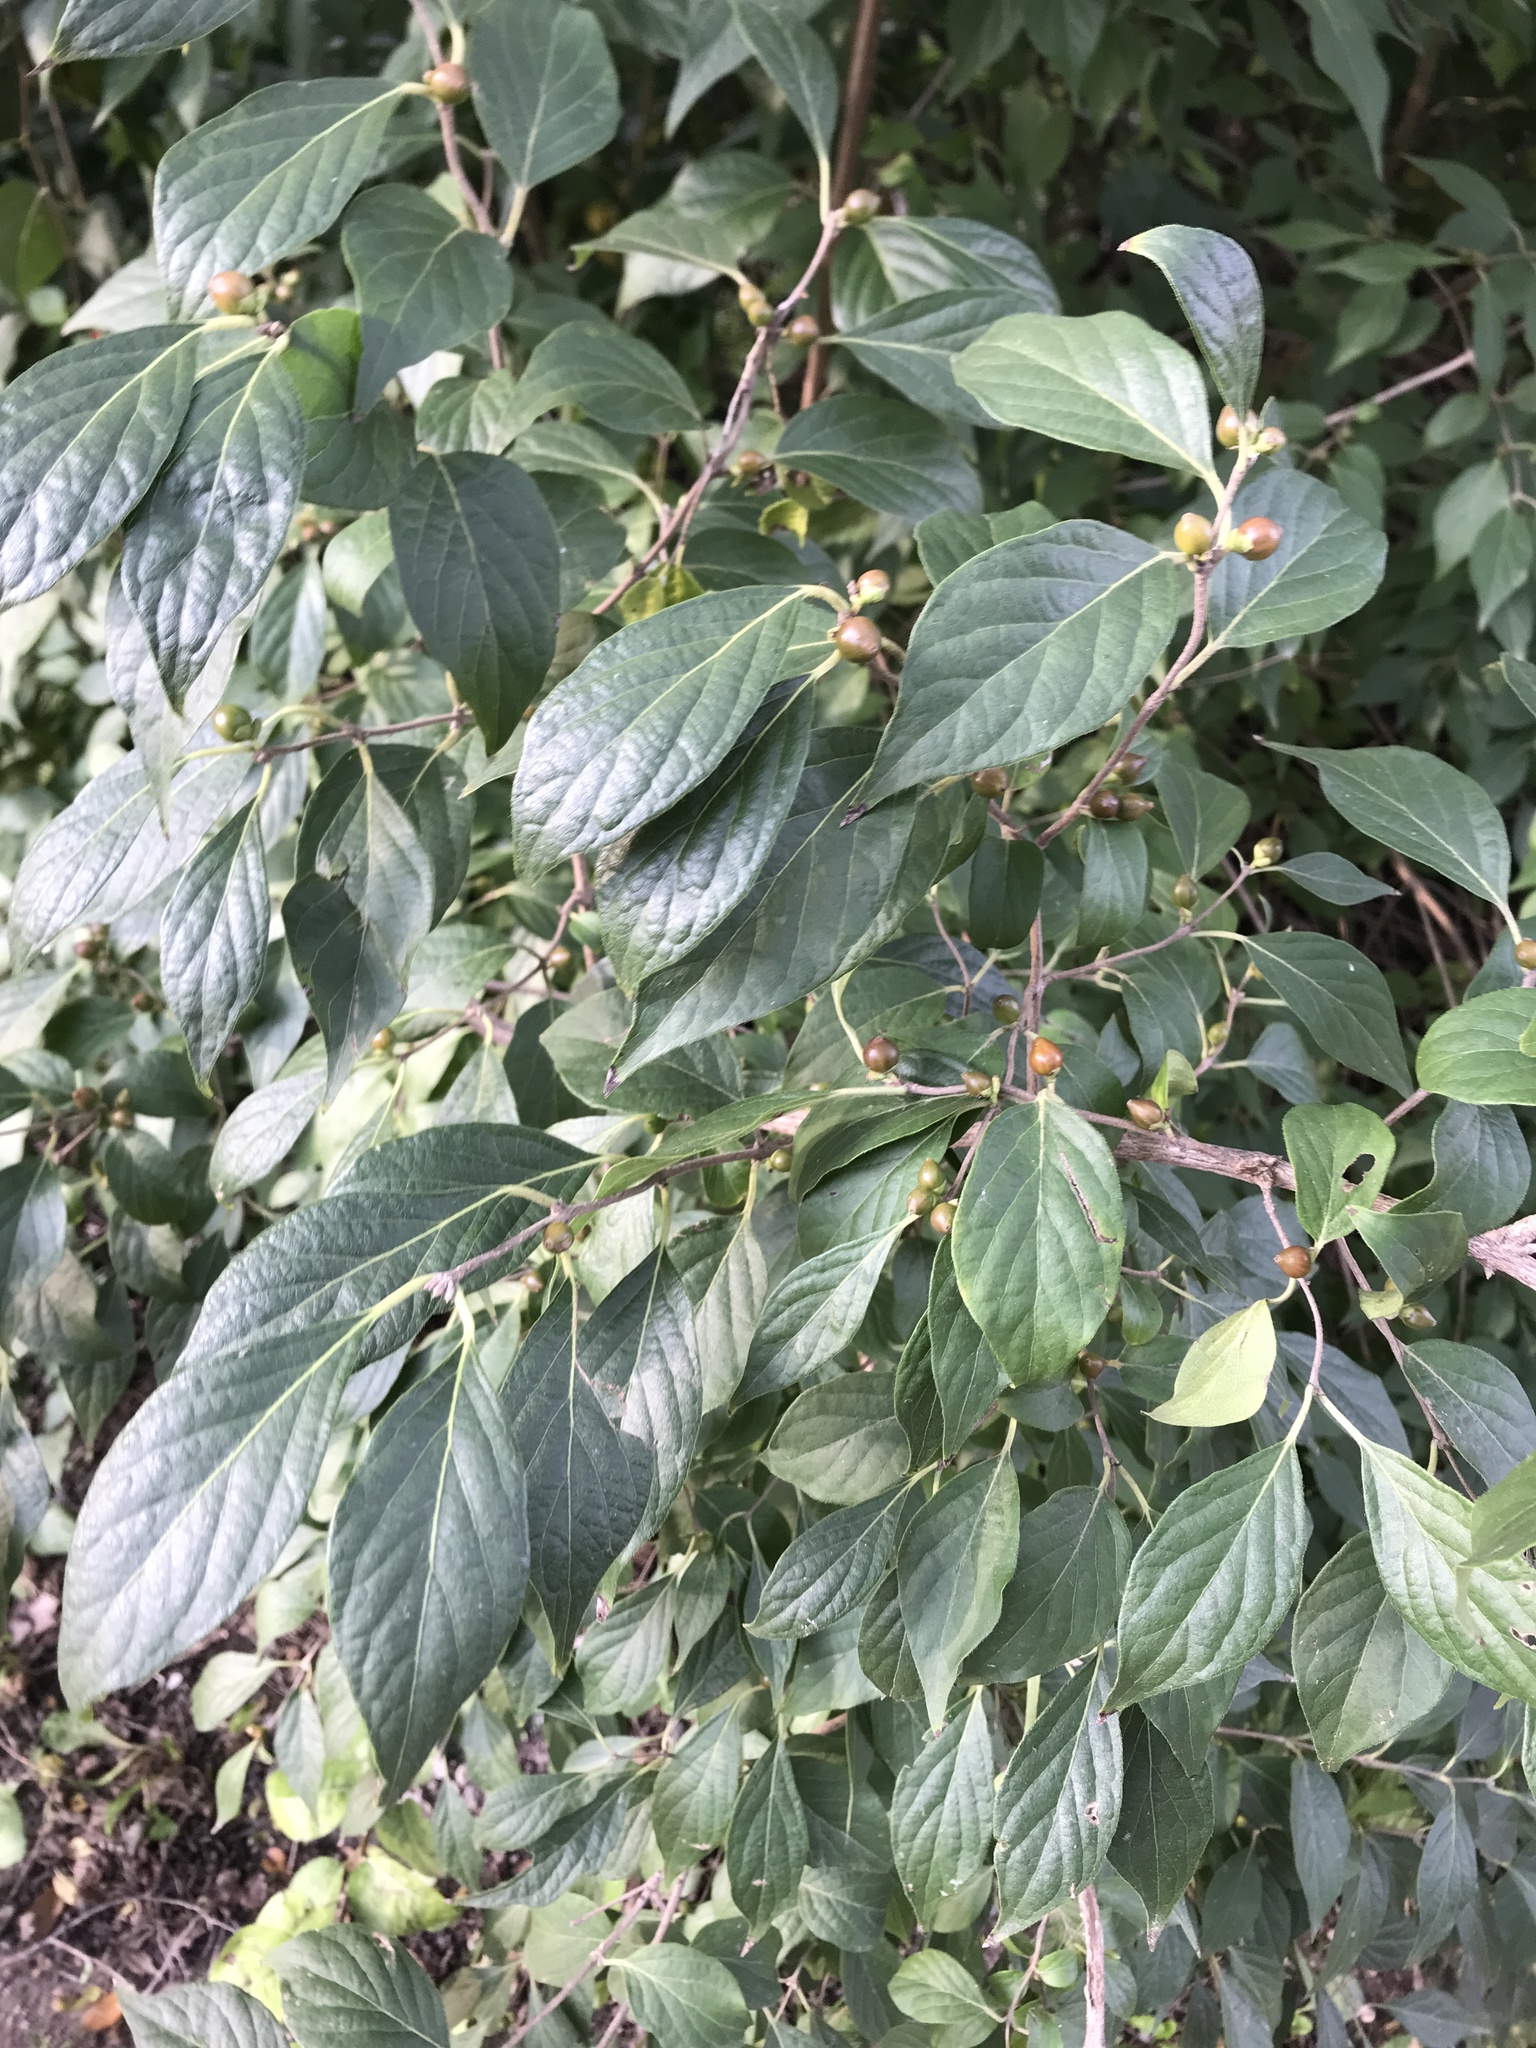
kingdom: Plantae
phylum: Tracheophyta
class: Magnoliopsida
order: Dipsacales
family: Caprifoliaceae
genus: Lonicera
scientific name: Lonicera maackii
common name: Amur honeysuckle
